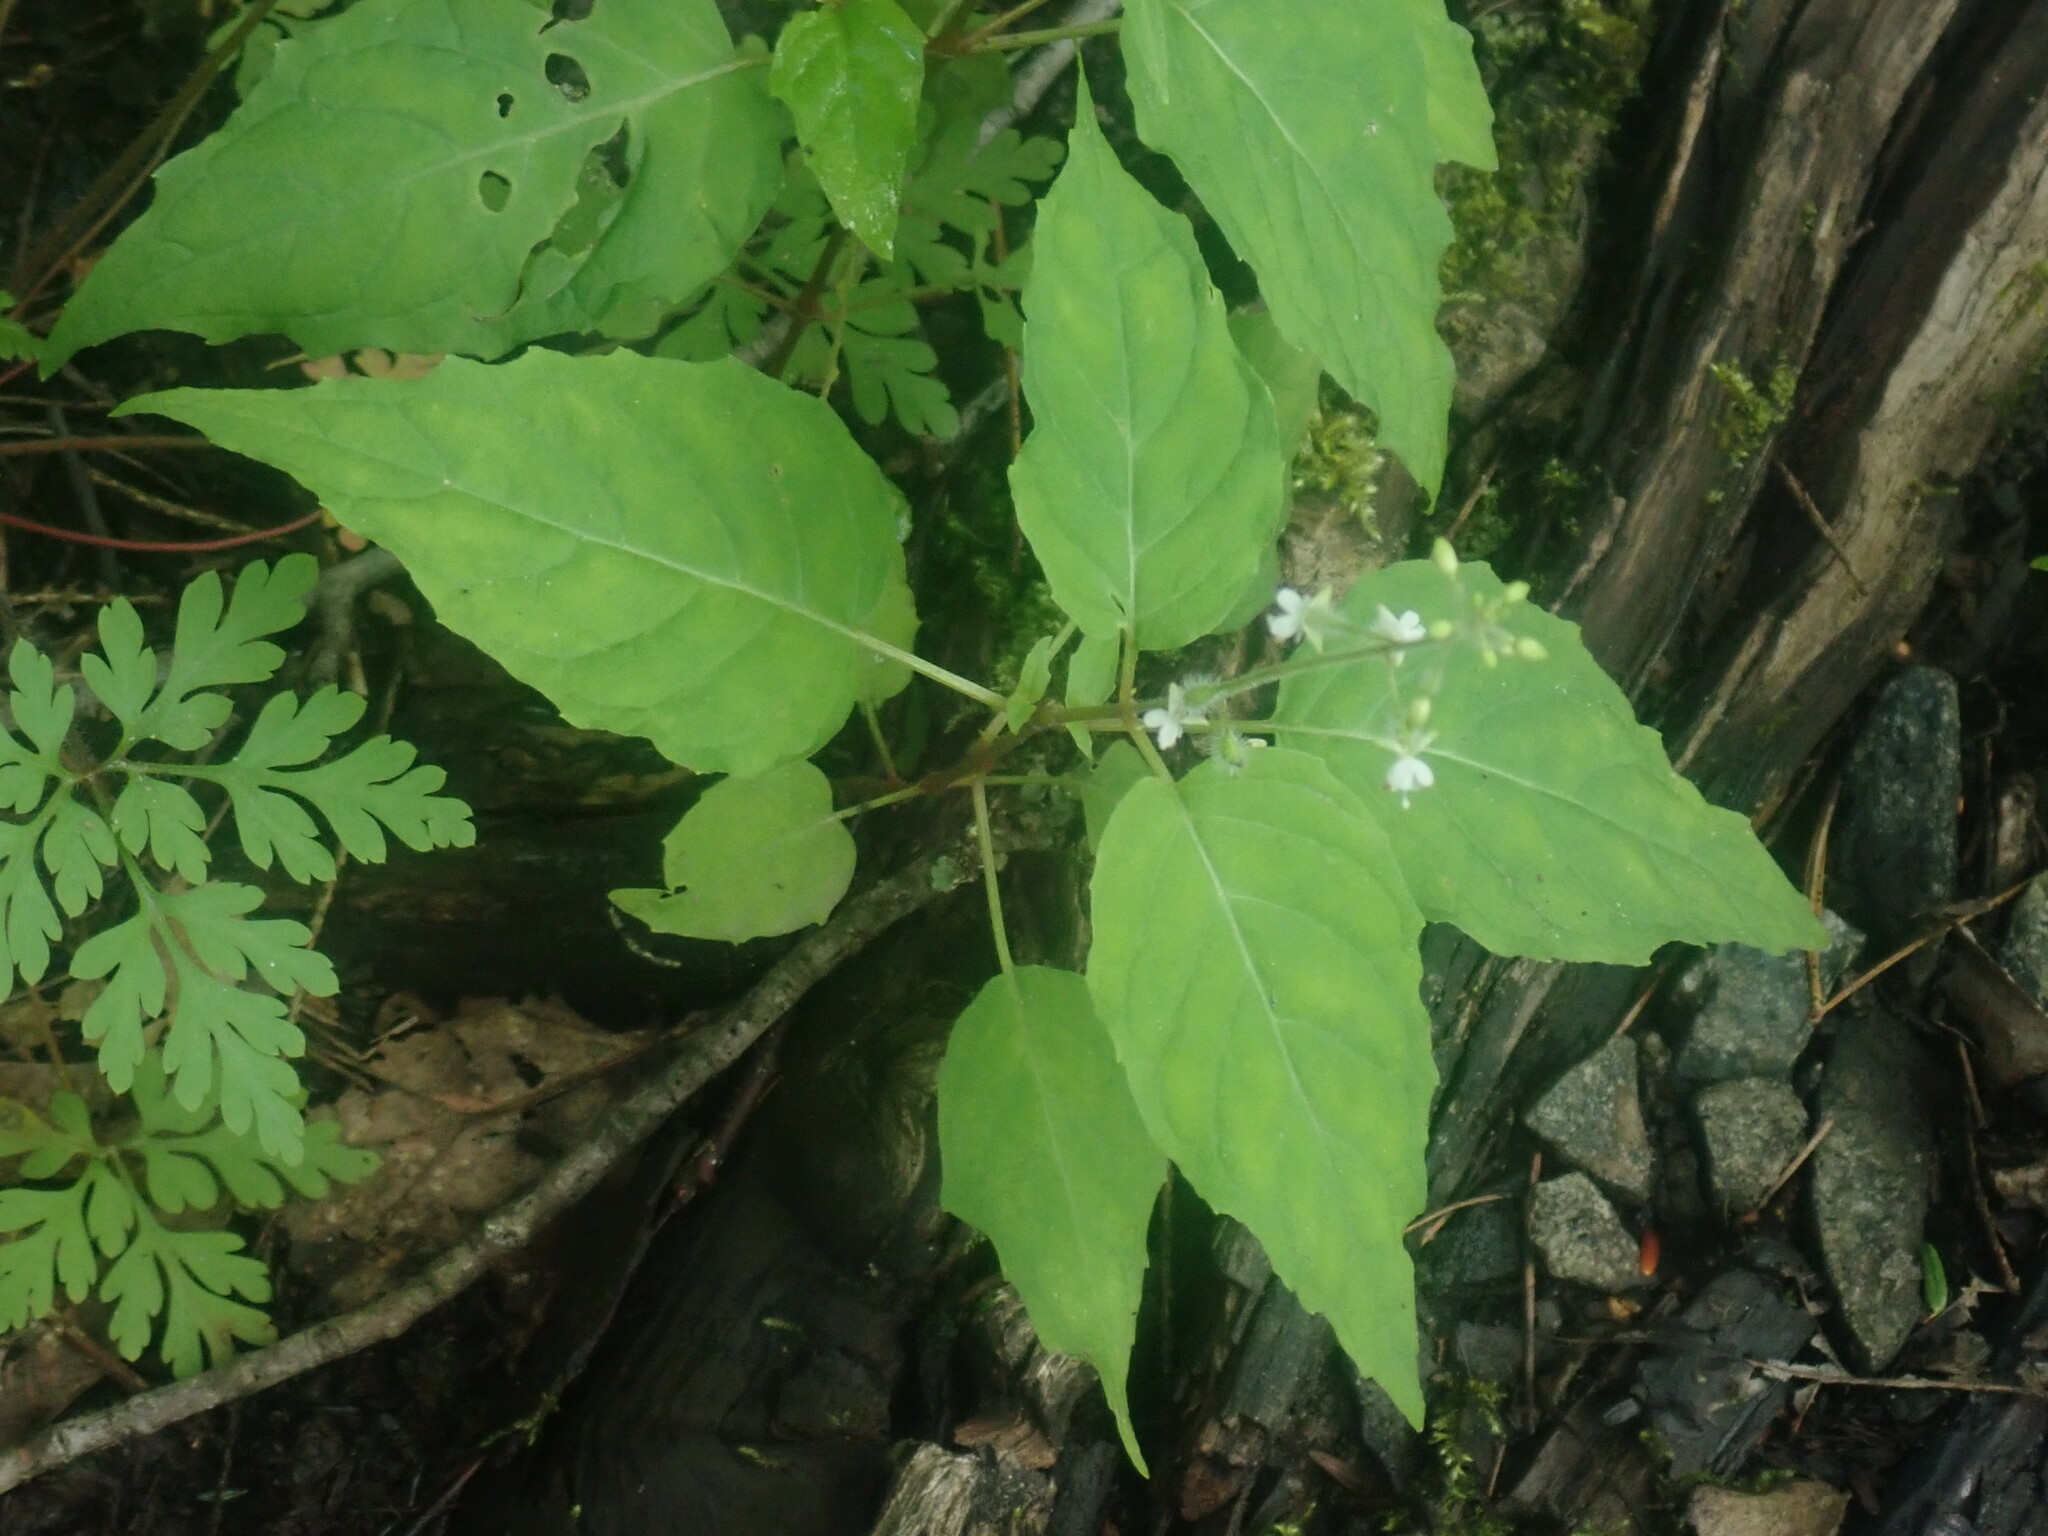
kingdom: Plantae
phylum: Tracheophyta
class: Magnoliopsida
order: Myrtales
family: Onagraceae
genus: Circaea
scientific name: Circaea alpina
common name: Alpine enchanter's-nightshade
